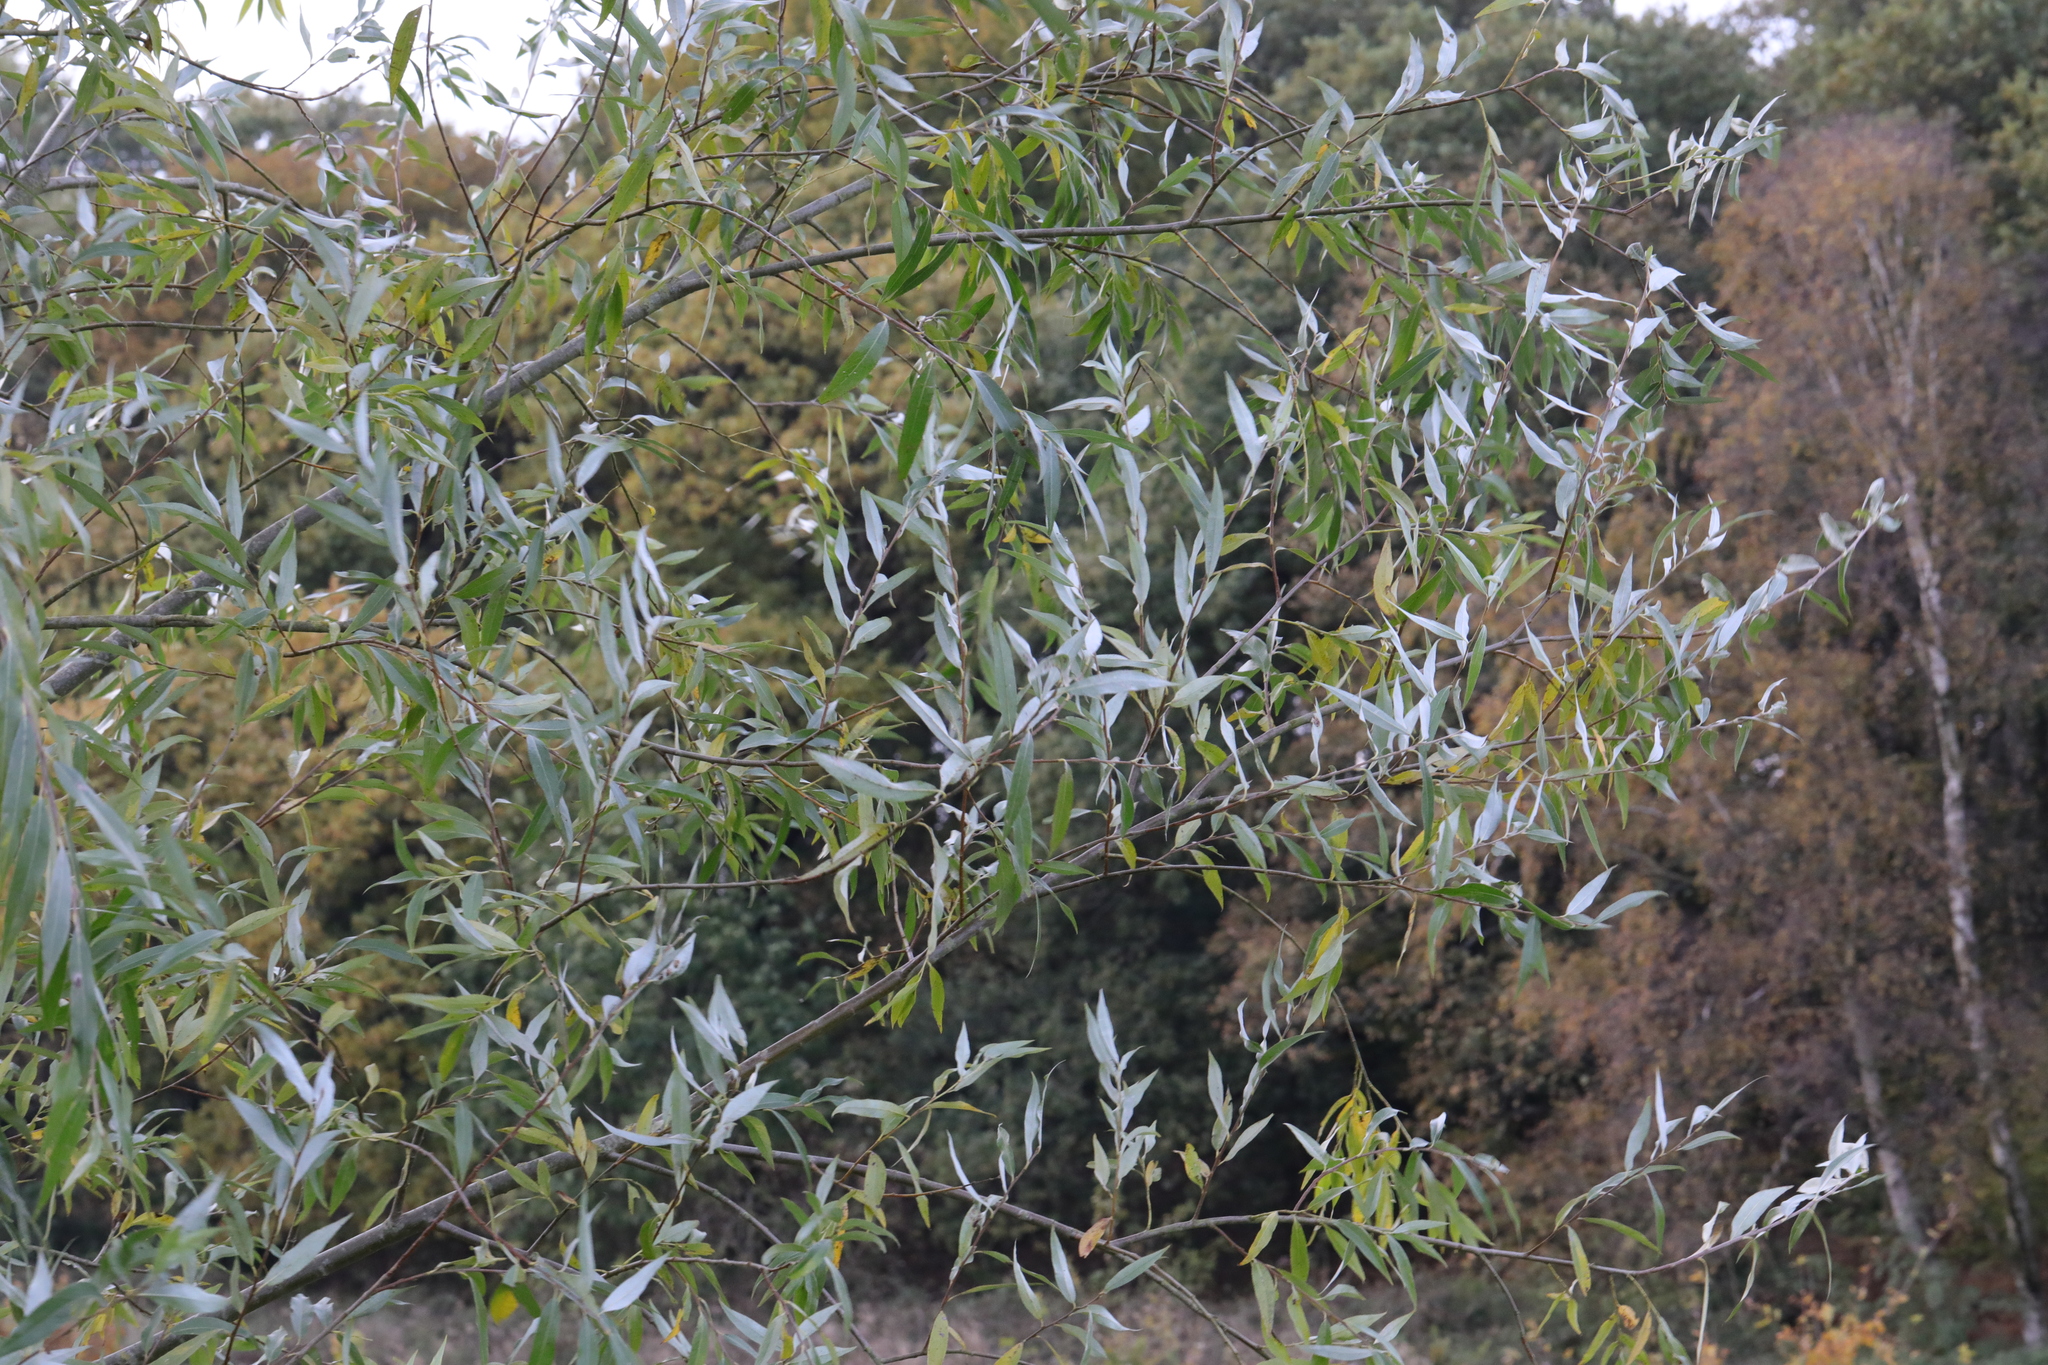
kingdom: Plantae
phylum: Tracheophyta
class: Magnoliopsida
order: Malpighiales
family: Salicaceae
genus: Salix
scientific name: Salix alba
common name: White willow
